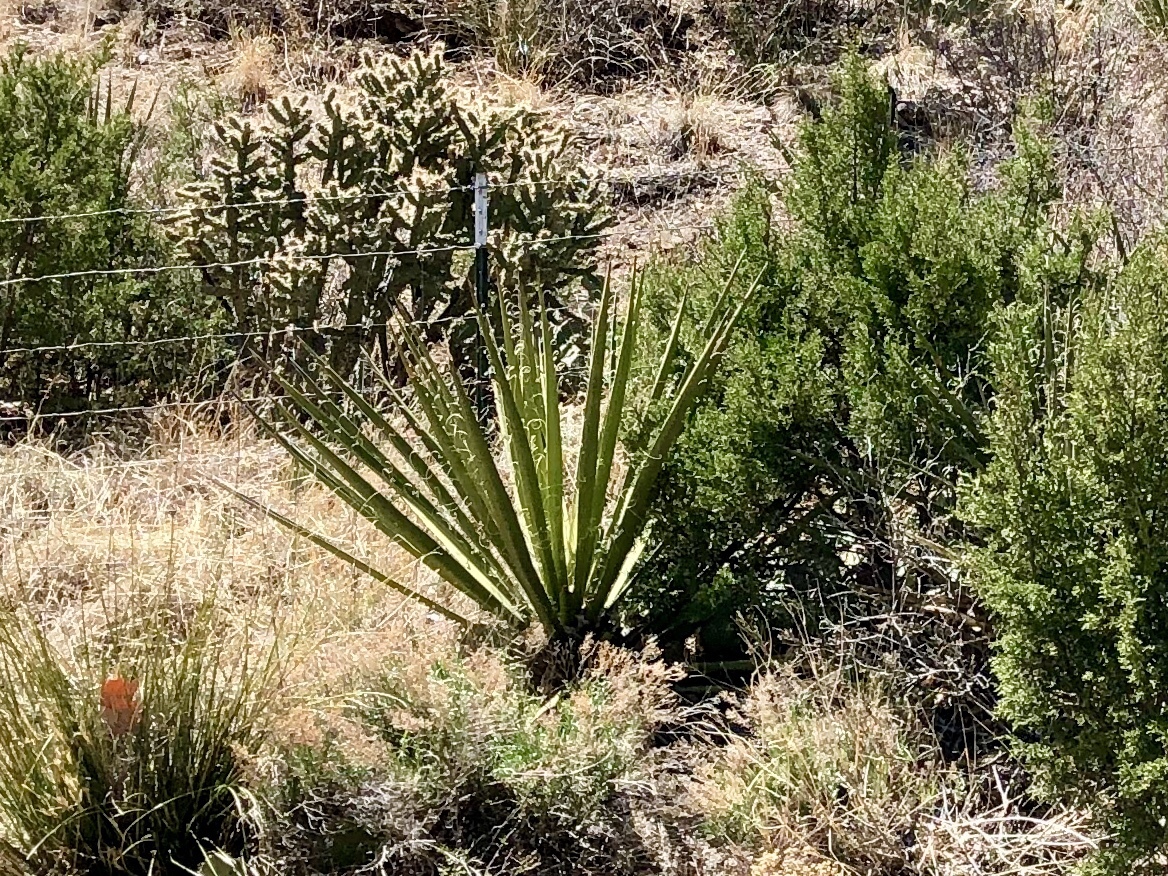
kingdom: Plantae
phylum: Tracheophyta
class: Liliopsida
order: Asparagales
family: Asparagaceae
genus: Yucca
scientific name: Yucca baccata
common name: Banana yucca
